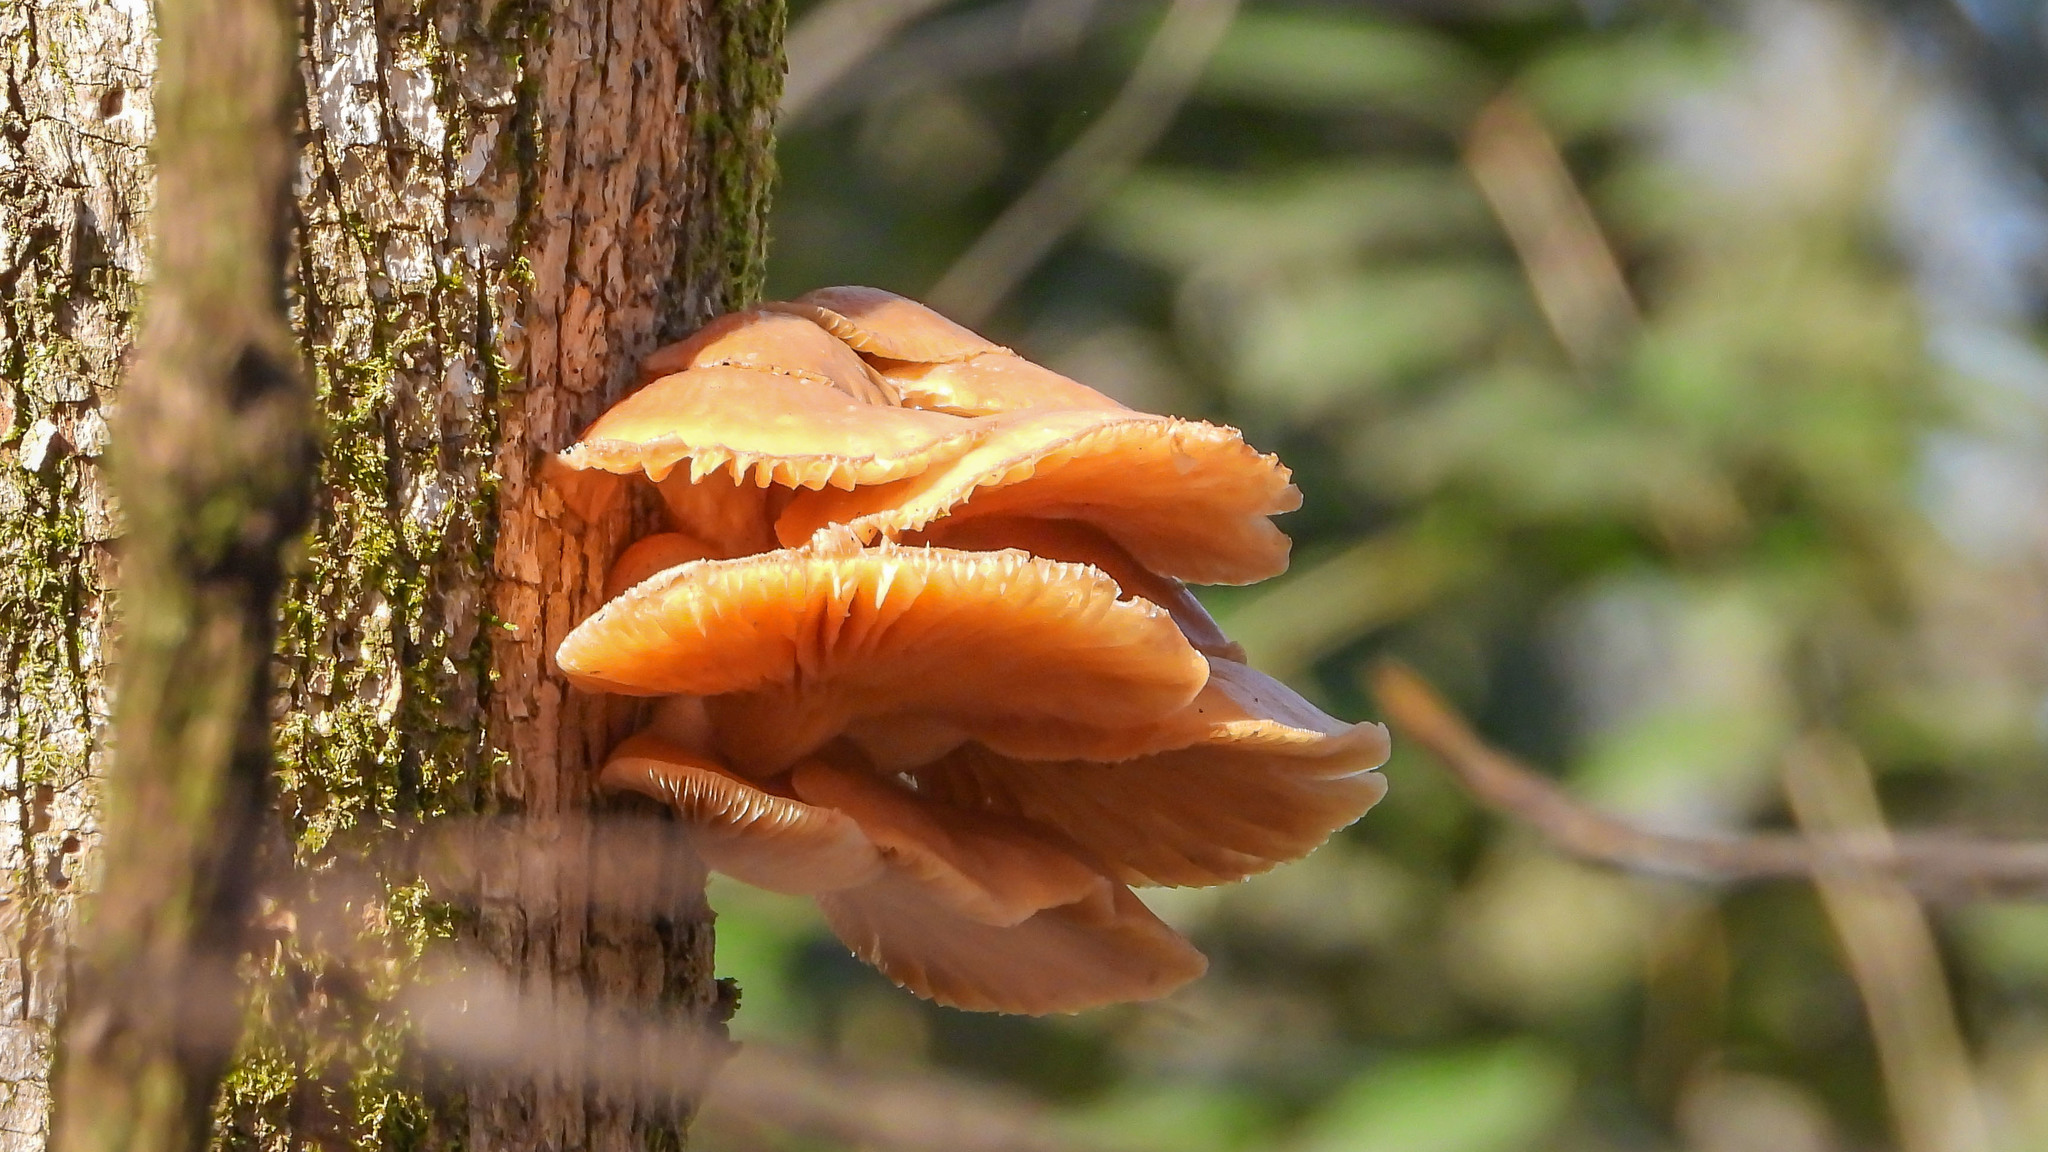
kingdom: Fungi
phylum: Basidiomycota
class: Agaricomycetes
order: Agaricales
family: Physalacriaceae
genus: Flammulina
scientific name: Flammulina velutipes
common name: Velvet shank
